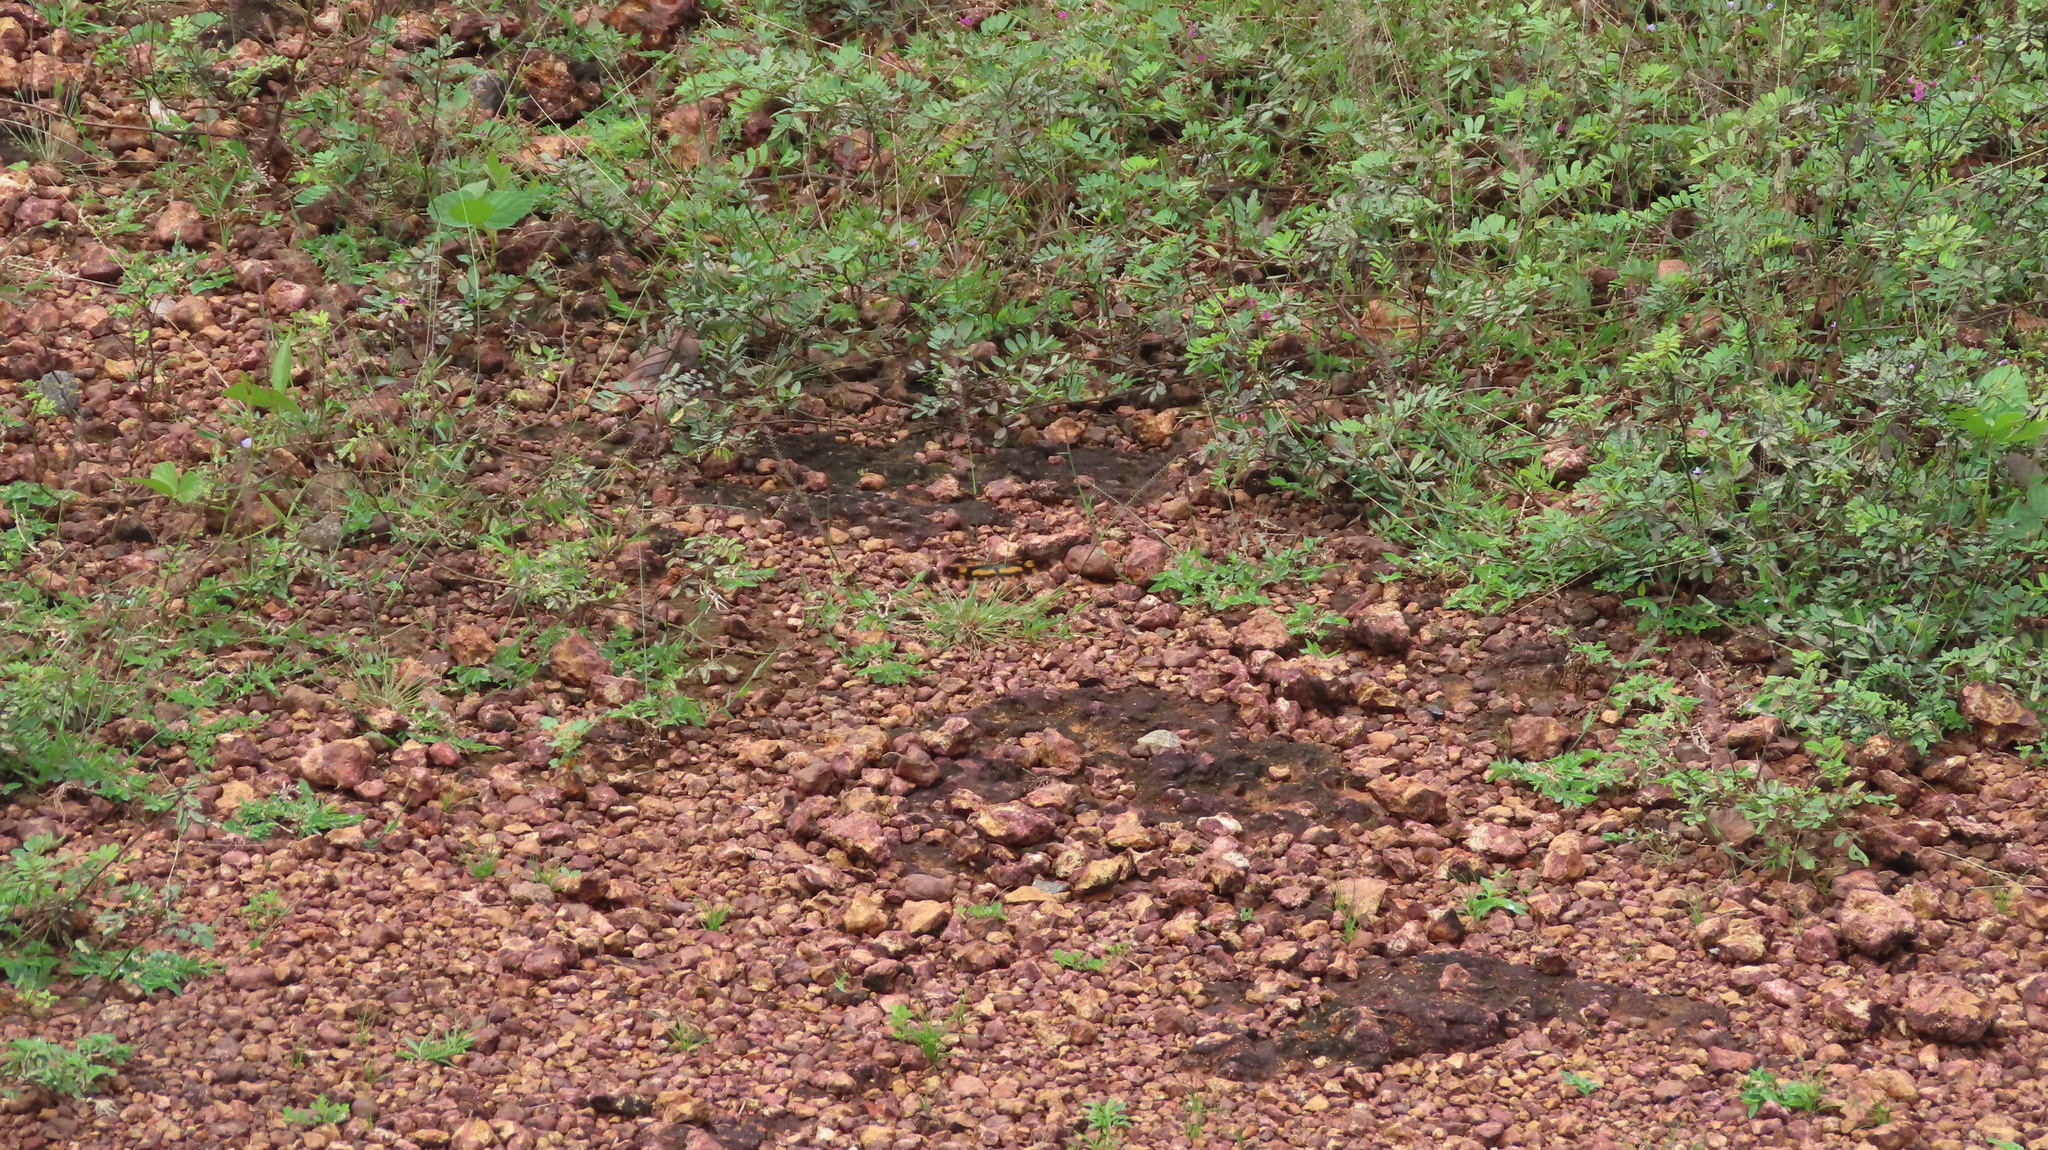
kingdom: Animalia
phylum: Arthropoda
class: Insecta
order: Odonata
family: Libellulidae
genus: Rhyothemis
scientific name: Rhyothemis variegata
